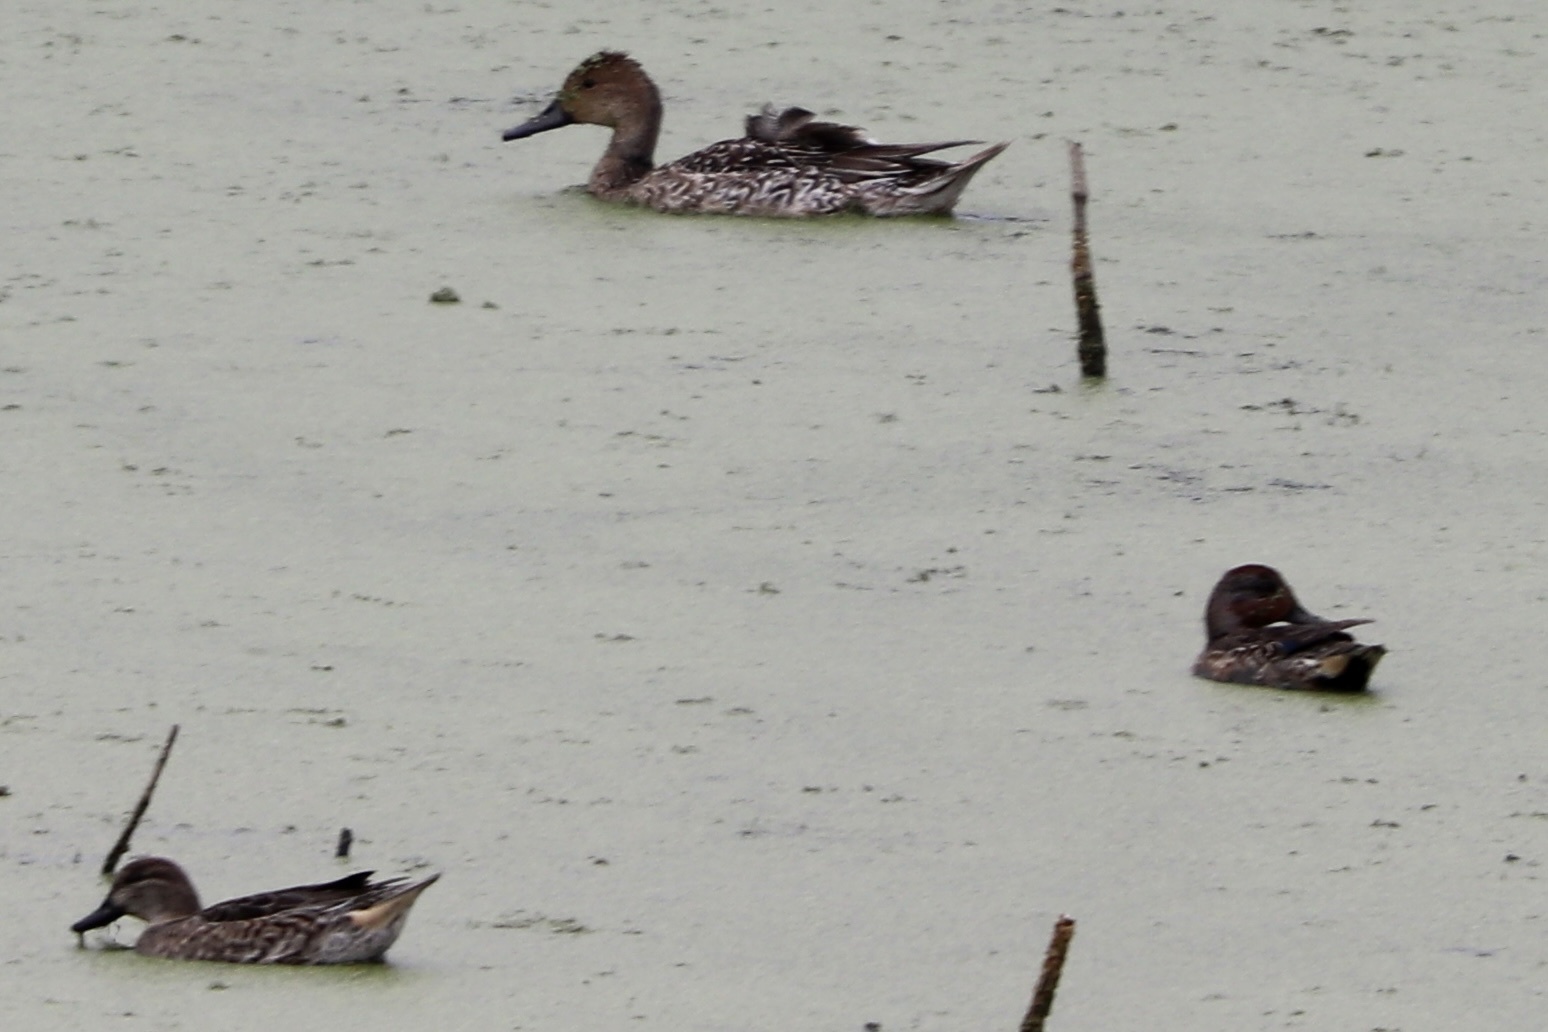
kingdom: Animalia
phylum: Chordata
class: Aves
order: Anseriformes
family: Anatidae
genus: Anas
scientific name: Anas acuta
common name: Northern pintail
